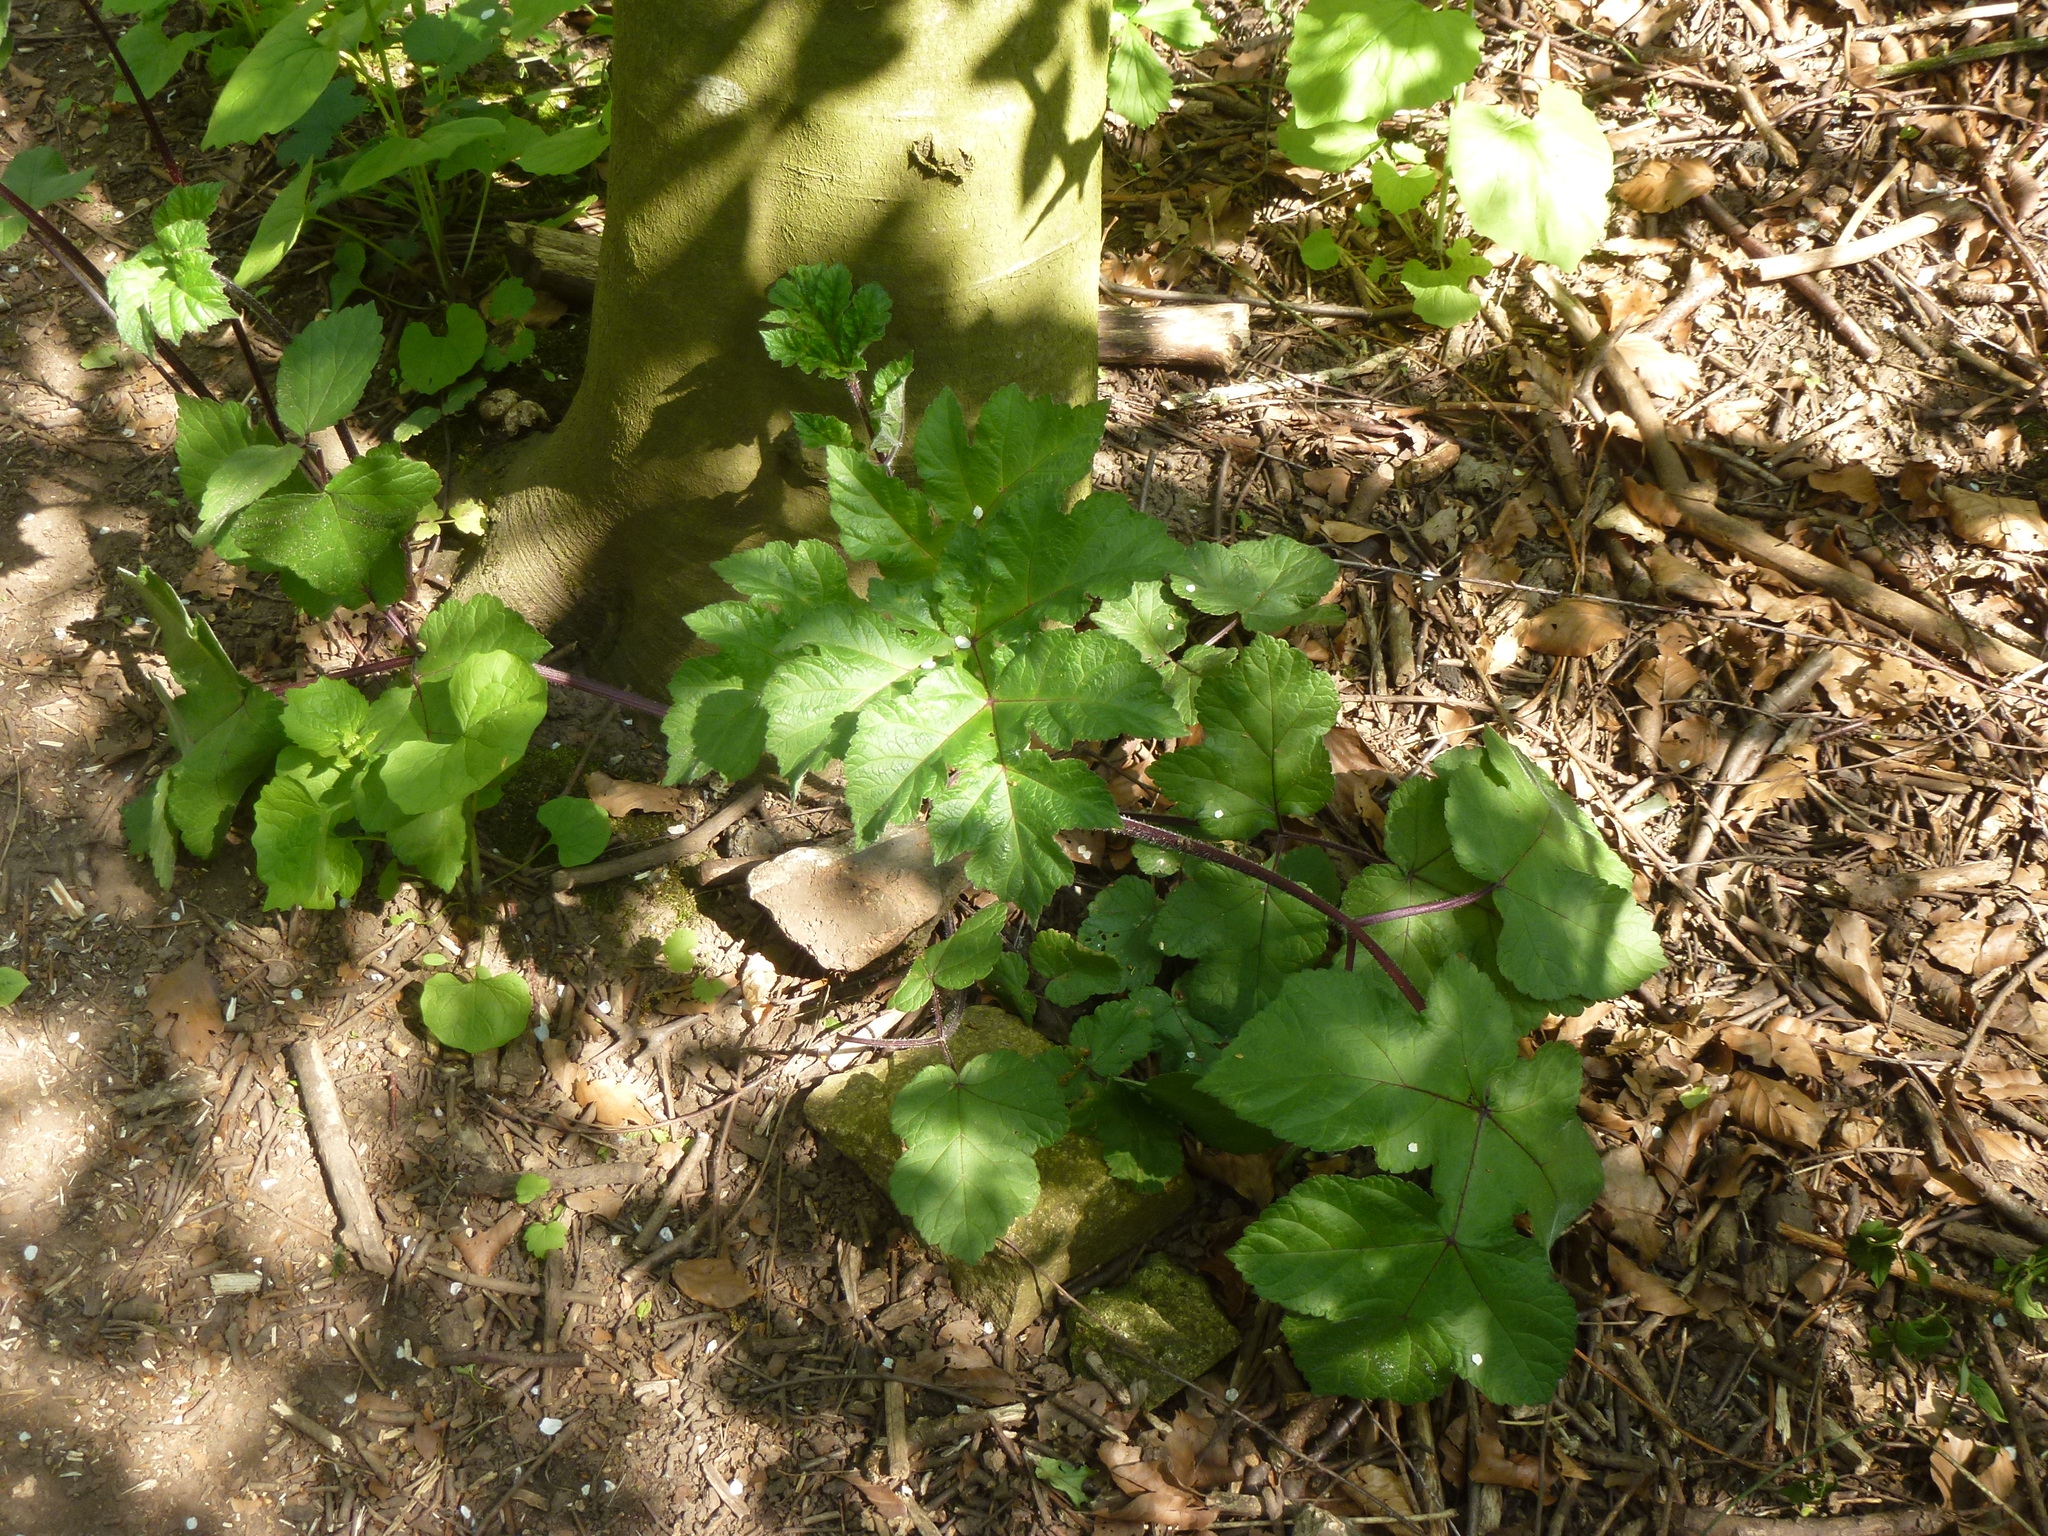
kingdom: Plantae
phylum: Tracheophyta
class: Magnoliopsida
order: Apiales
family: Apiaceae
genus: Heracleum
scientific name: Heracleum sphondylium
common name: Hogweed
